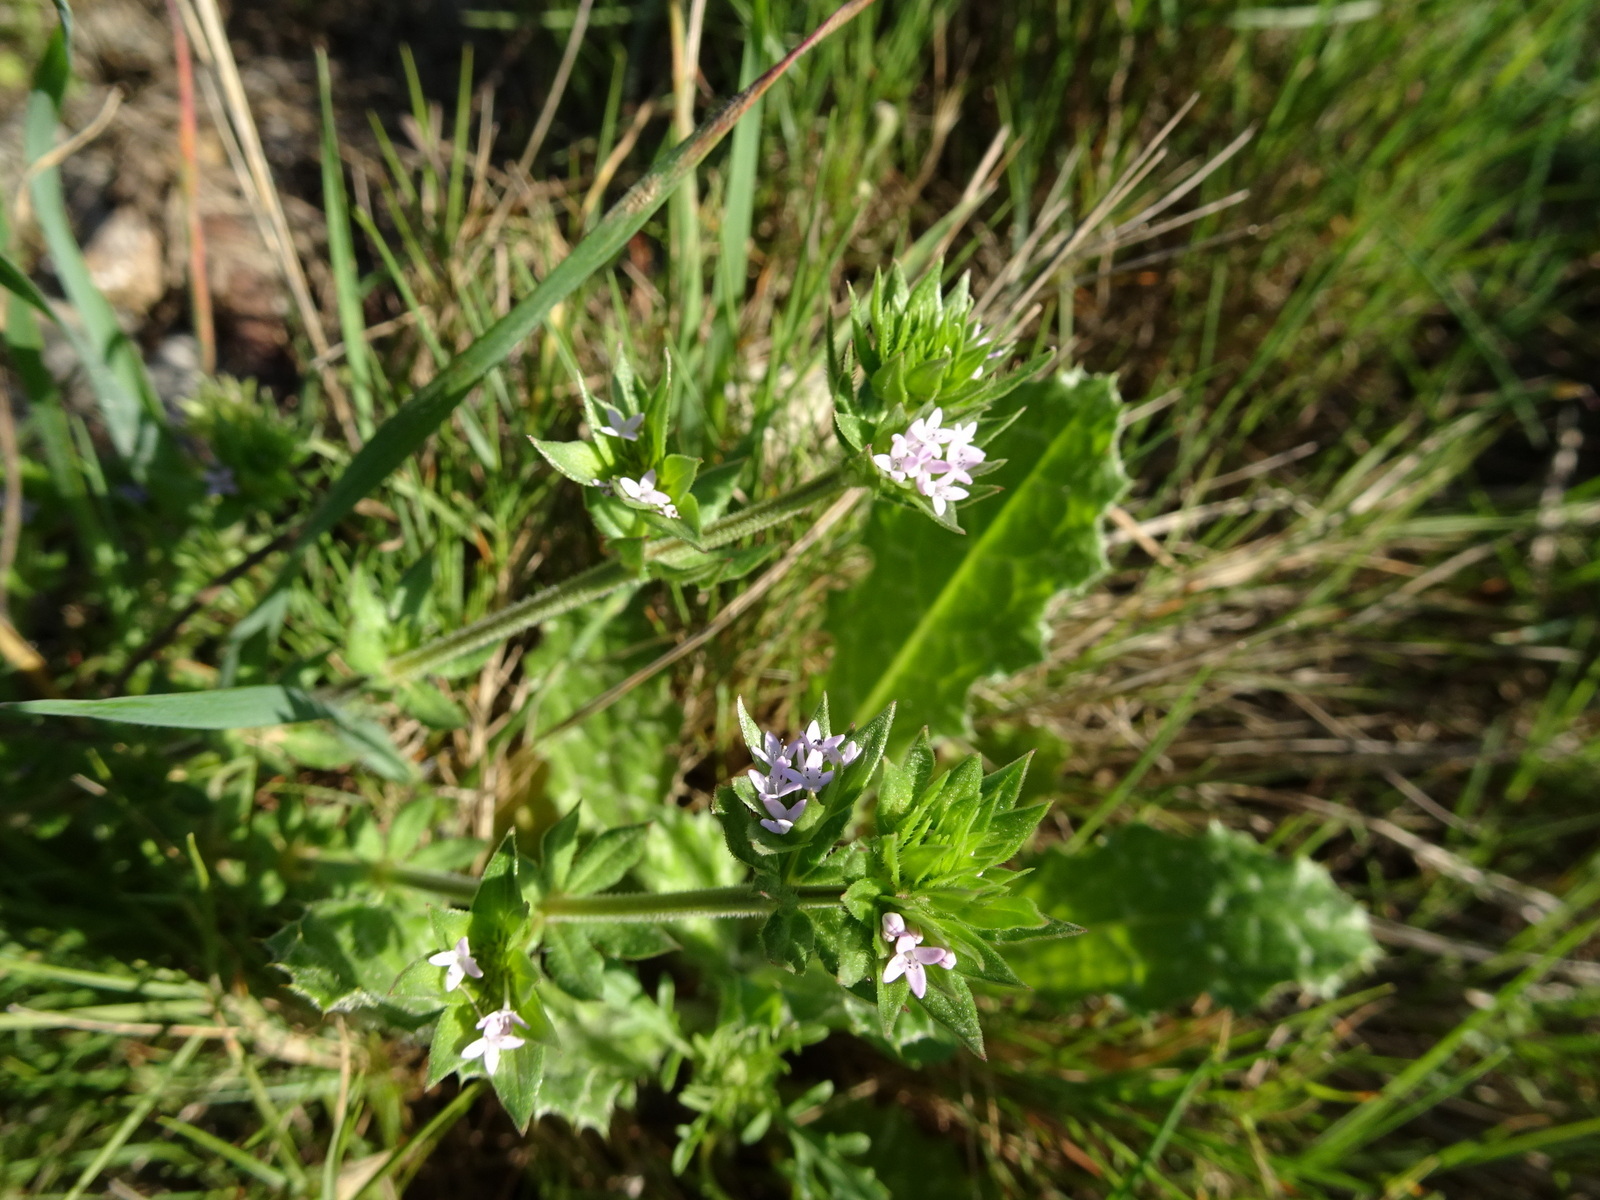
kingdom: Plantae
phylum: Tracheophyta
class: Magnoliopsida
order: Gentianales
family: Rubiaceae
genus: Sherardia
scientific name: Sherardia arvensis
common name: Field madder
